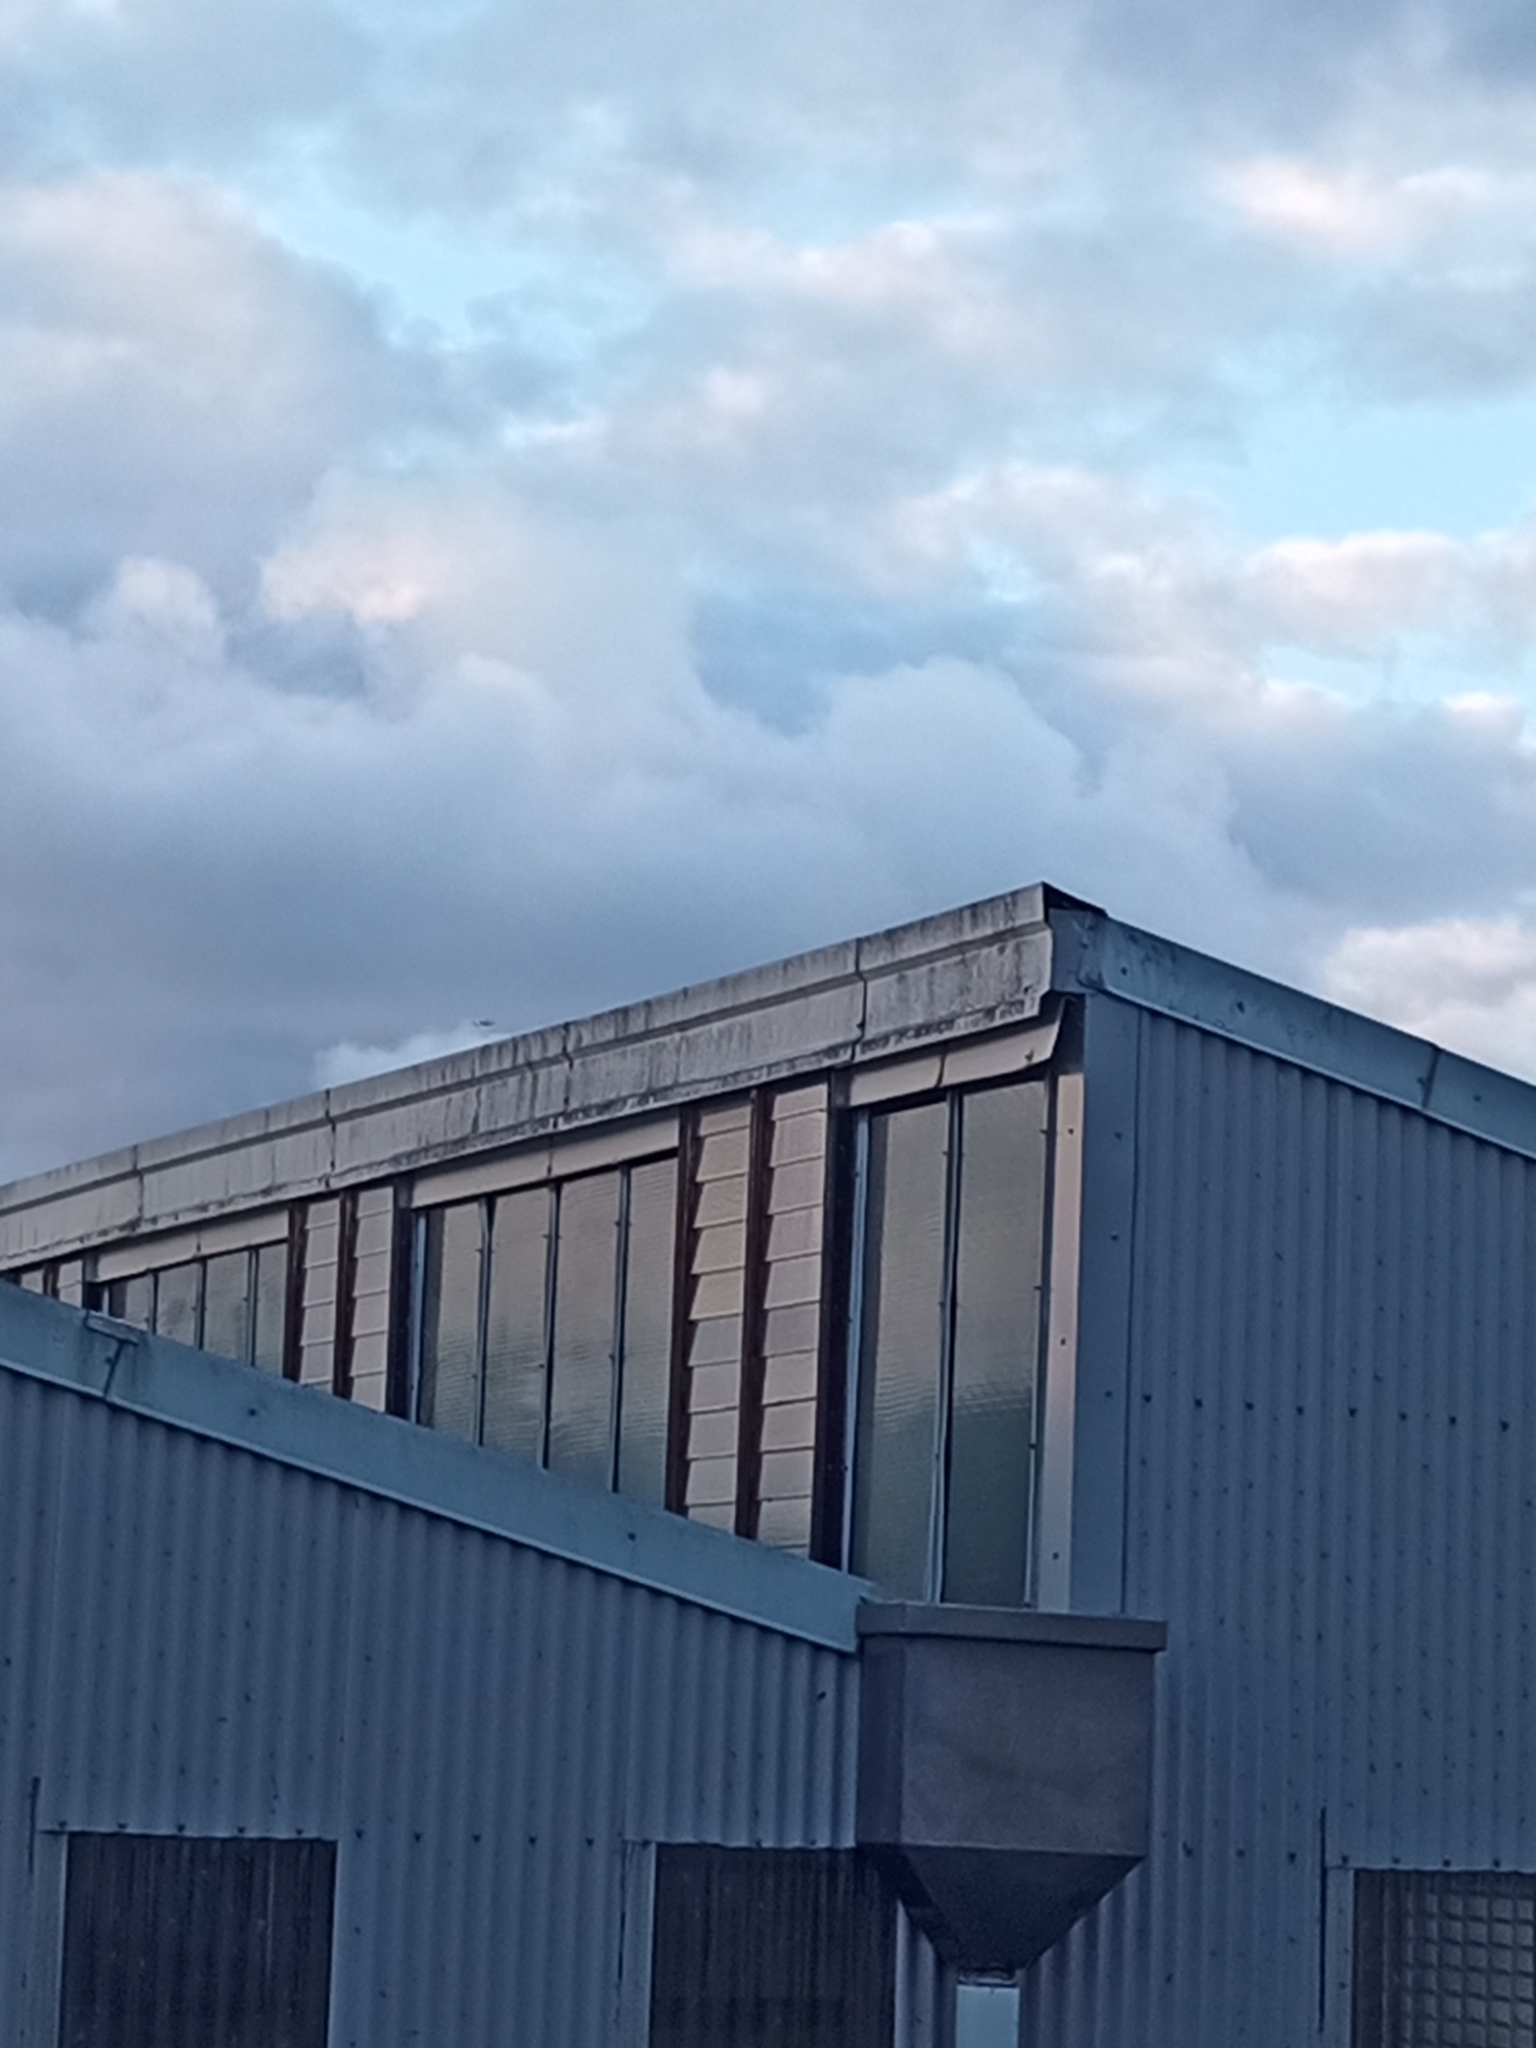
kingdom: Animalia
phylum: Chordata
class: Aves
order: Passeriformes
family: Sturnidae
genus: Acridotheres
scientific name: Acridotheres tristis
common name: Common myna
